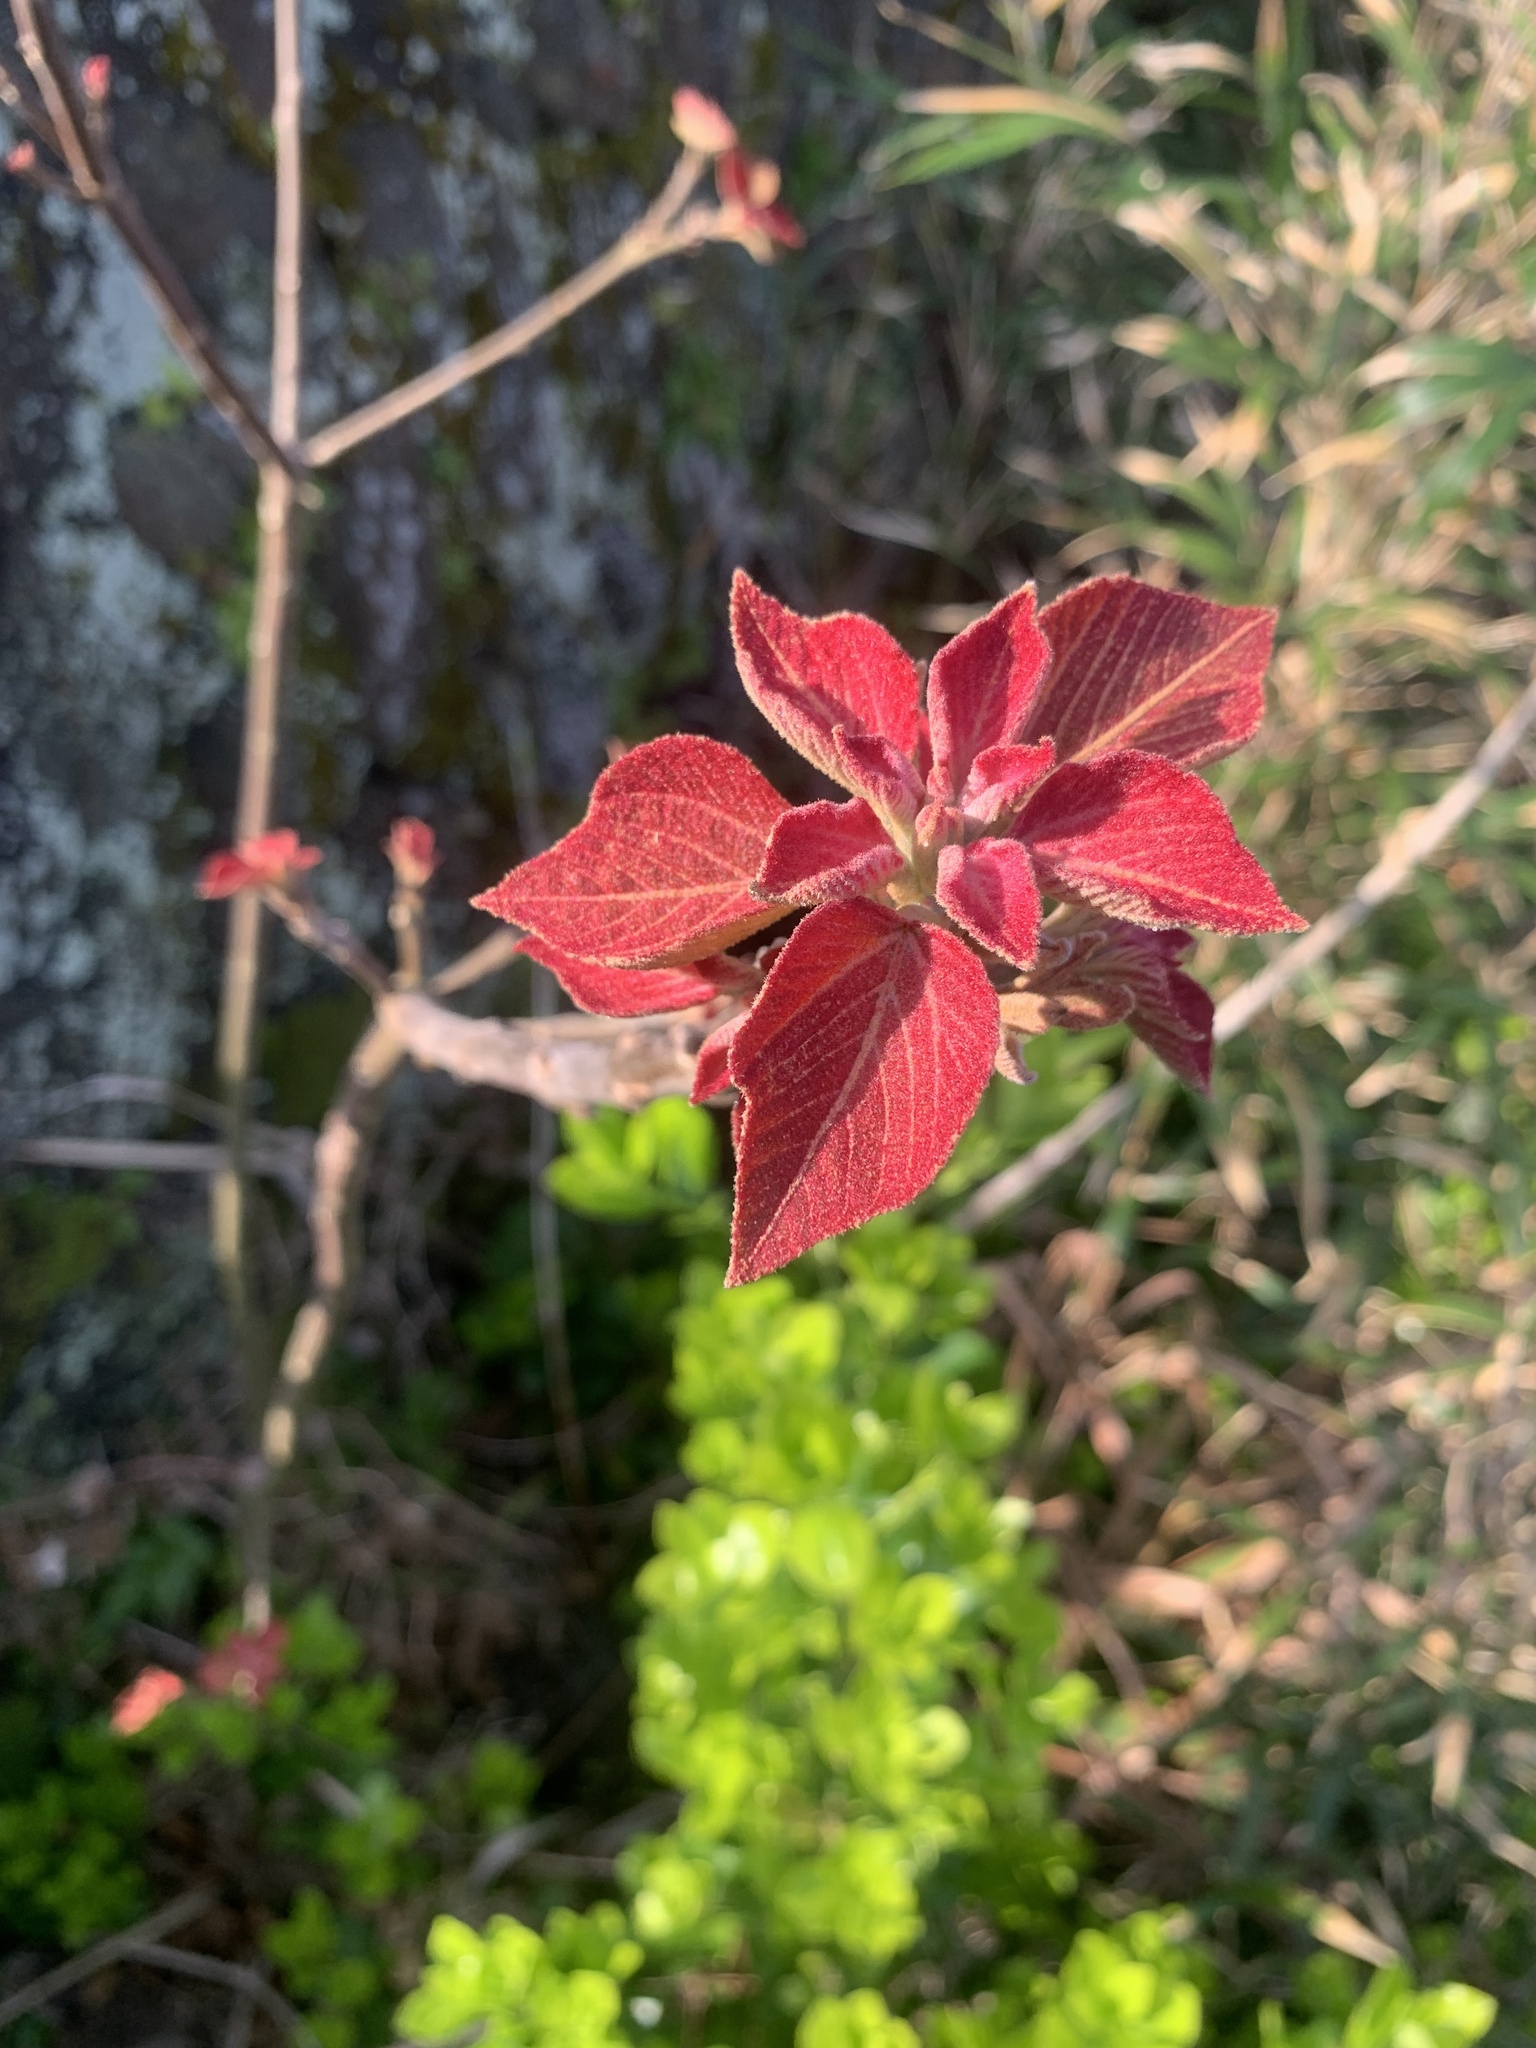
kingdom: Plantae
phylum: Tracheophyta
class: Magnoliopsida
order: Malpighiales
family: Euphorbiaceae
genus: Mallotus
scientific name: Mallotus japonicus
